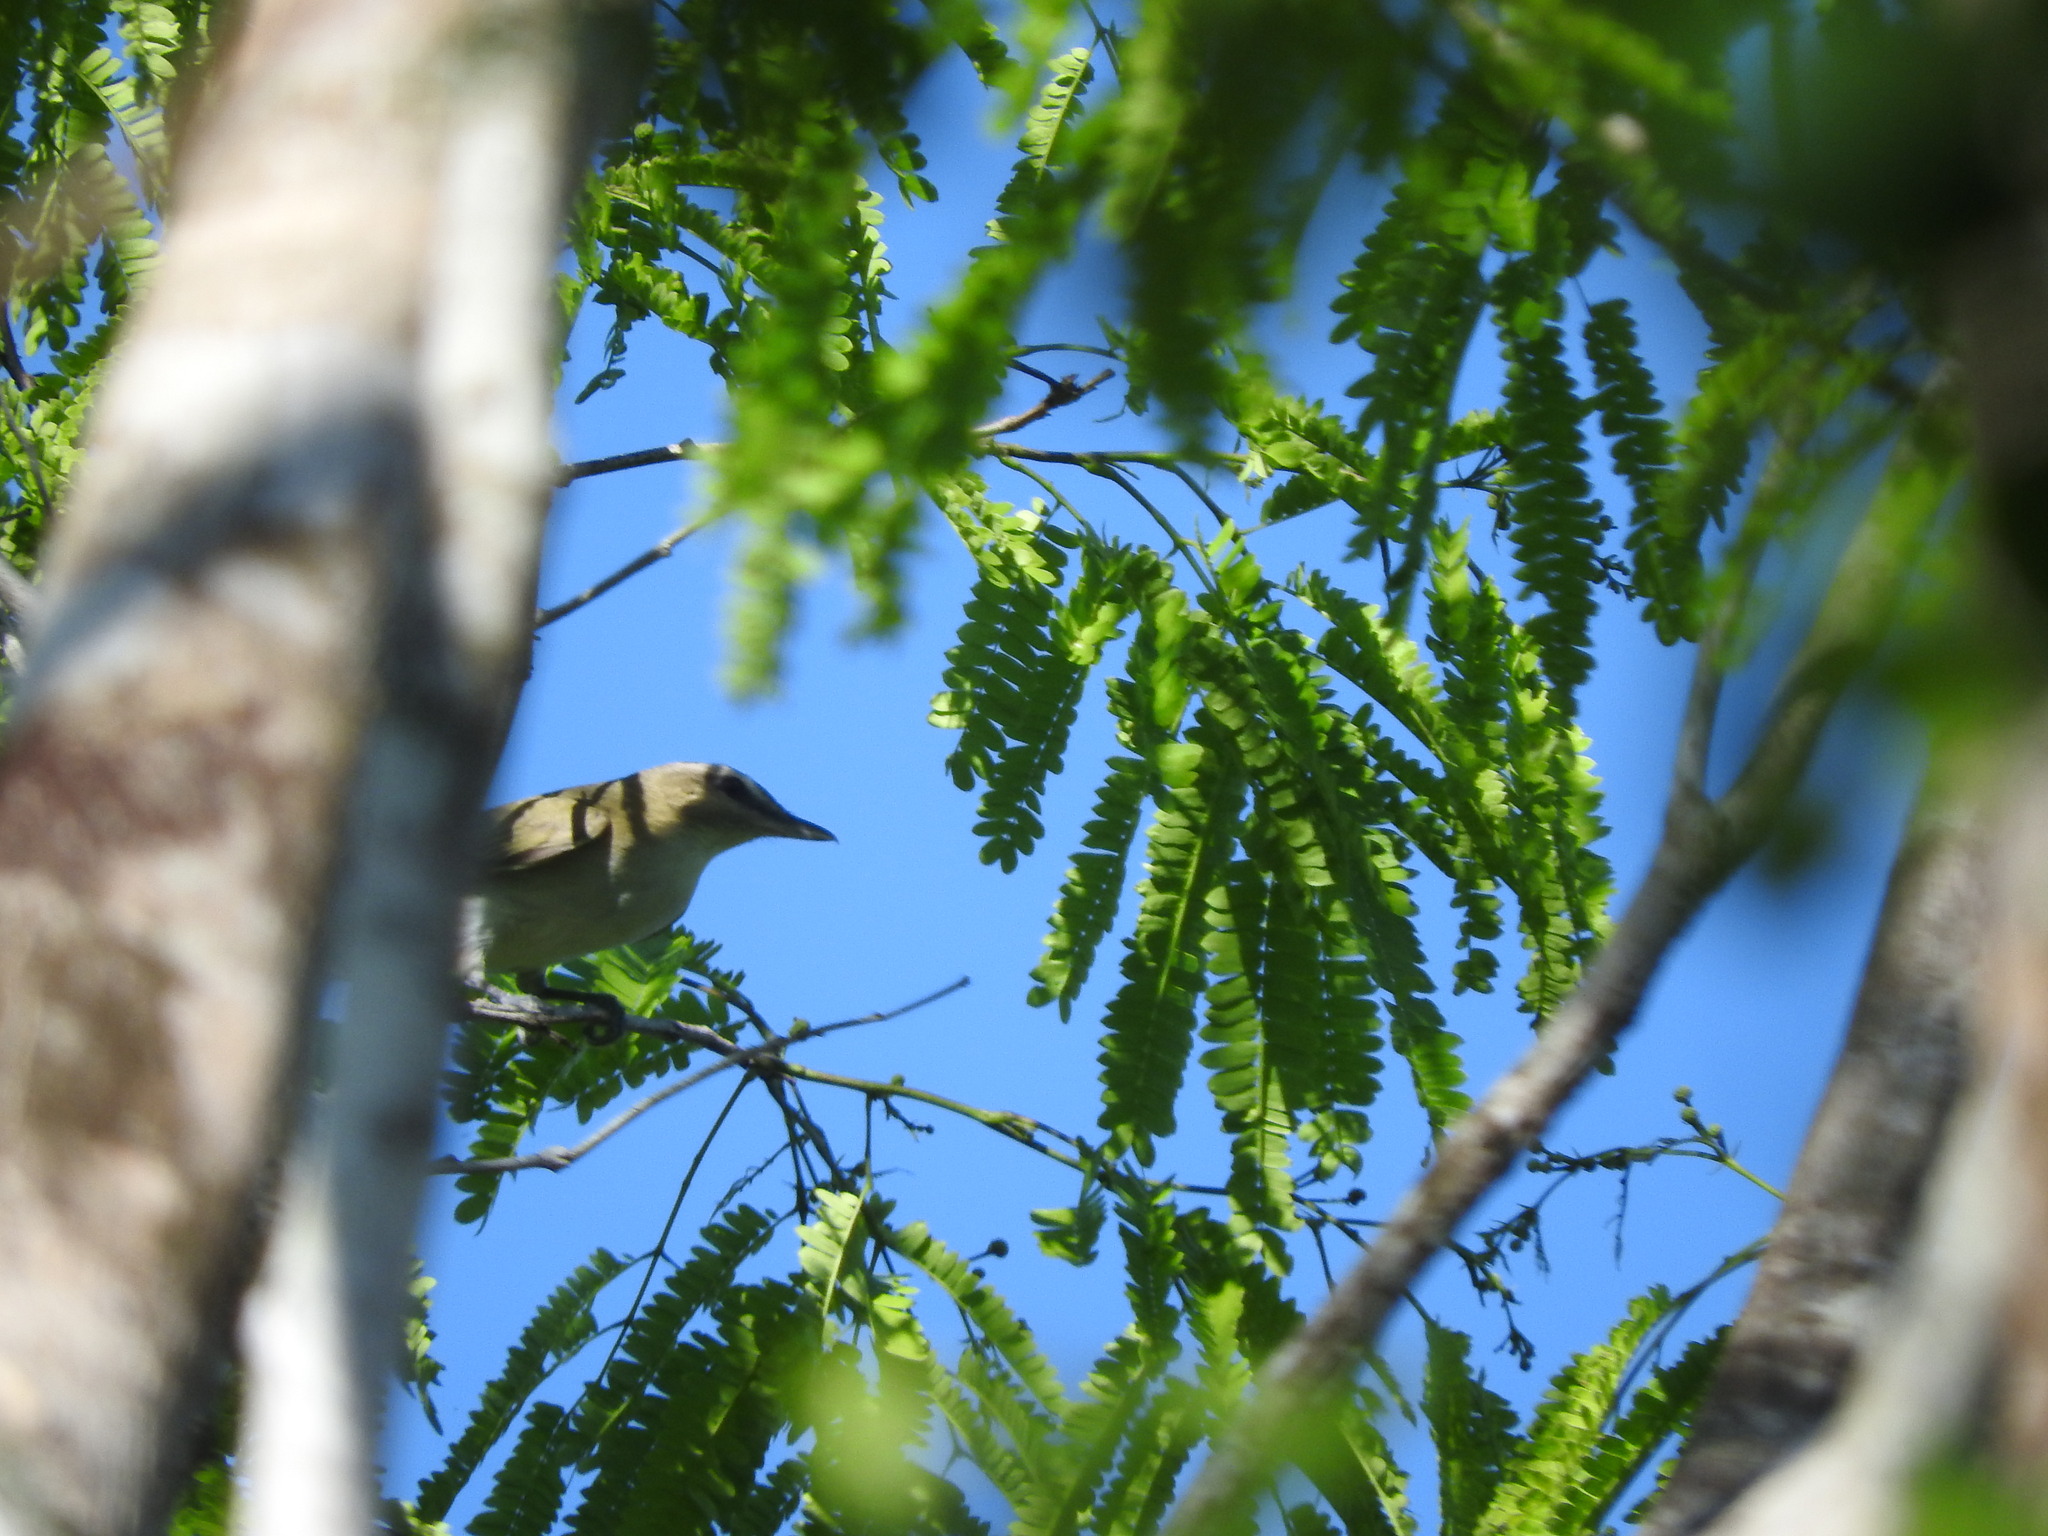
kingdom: Animalia
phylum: Chordata
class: Aves
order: Passeriformes
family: Vireonidae
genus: Vireo
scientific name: Vireo flavoviridis
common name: Yellow-green vireo
